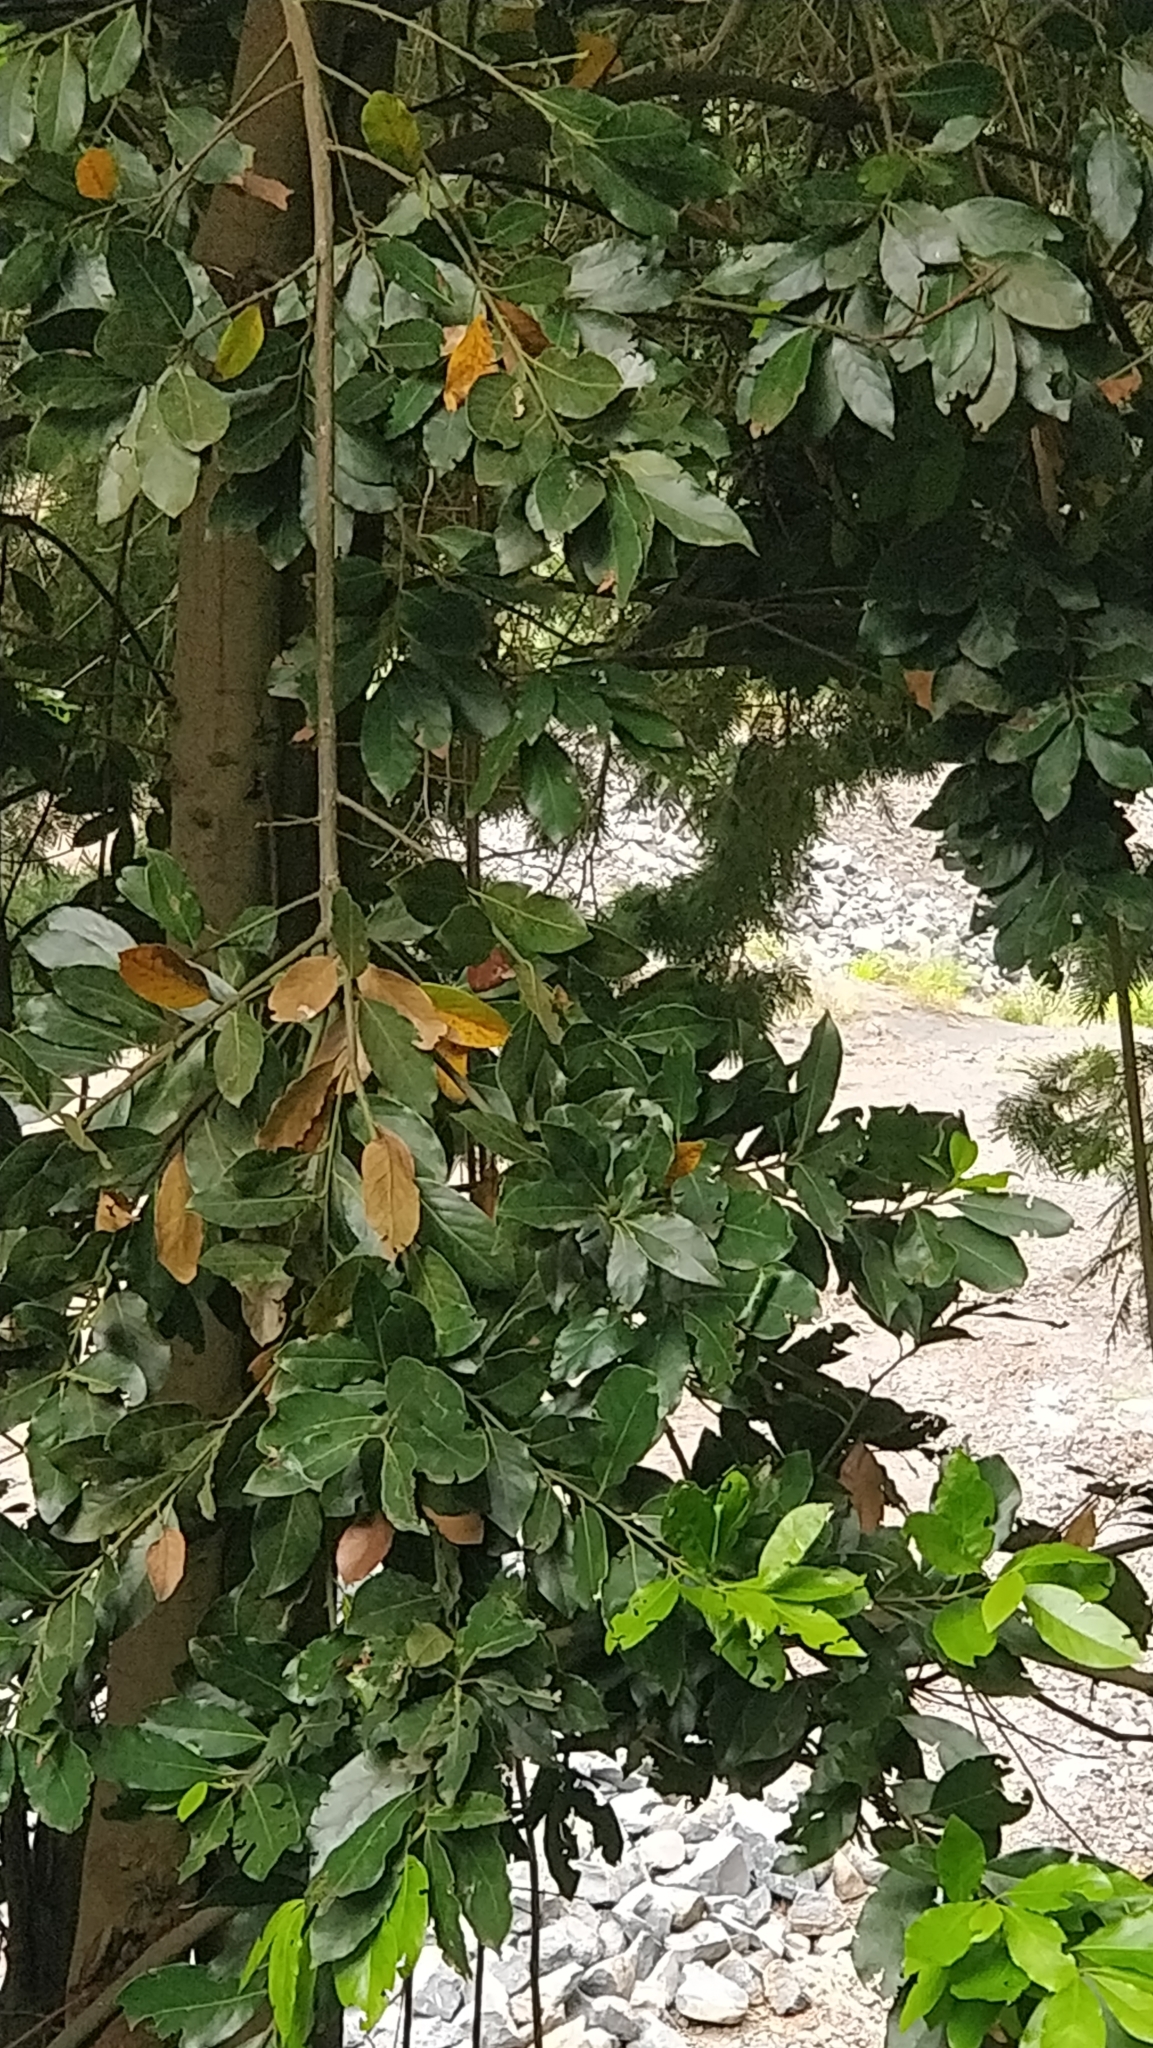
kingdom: Plantae
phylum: Tracheophyta
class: Magnoliopsida
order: Laurales
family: Lauraceae
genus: Laurus
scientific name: Laurus novocanariensis
